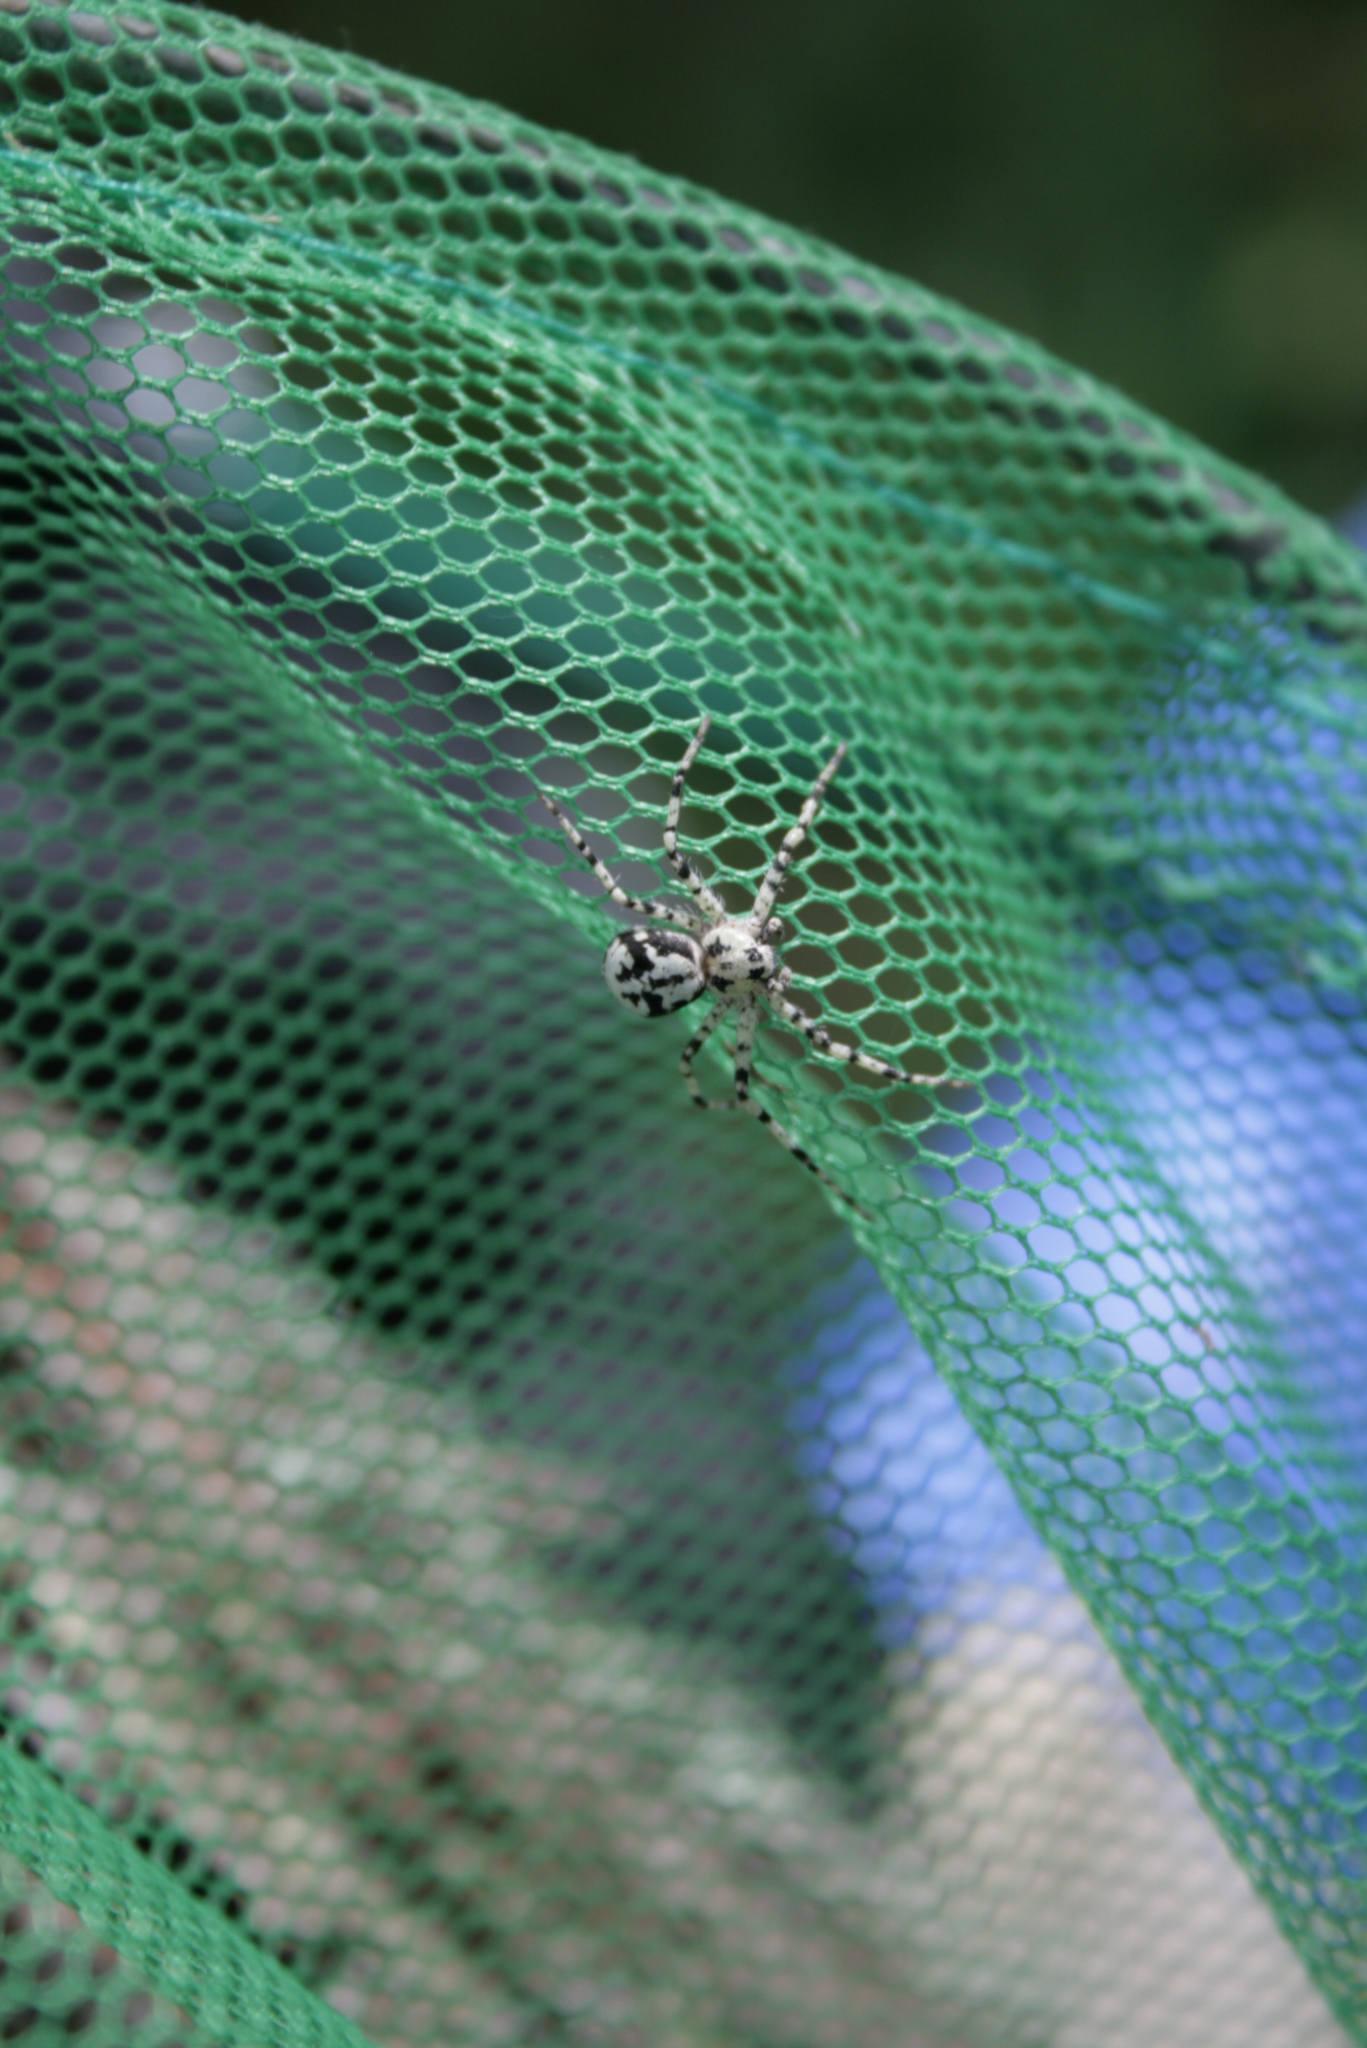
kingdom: Animalia
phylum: Arthropoda
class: Arachnida
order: Araneae
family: Philodromidae
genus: Philodromus
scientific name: Philodromus margaritatus
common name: Lichen running-spider
